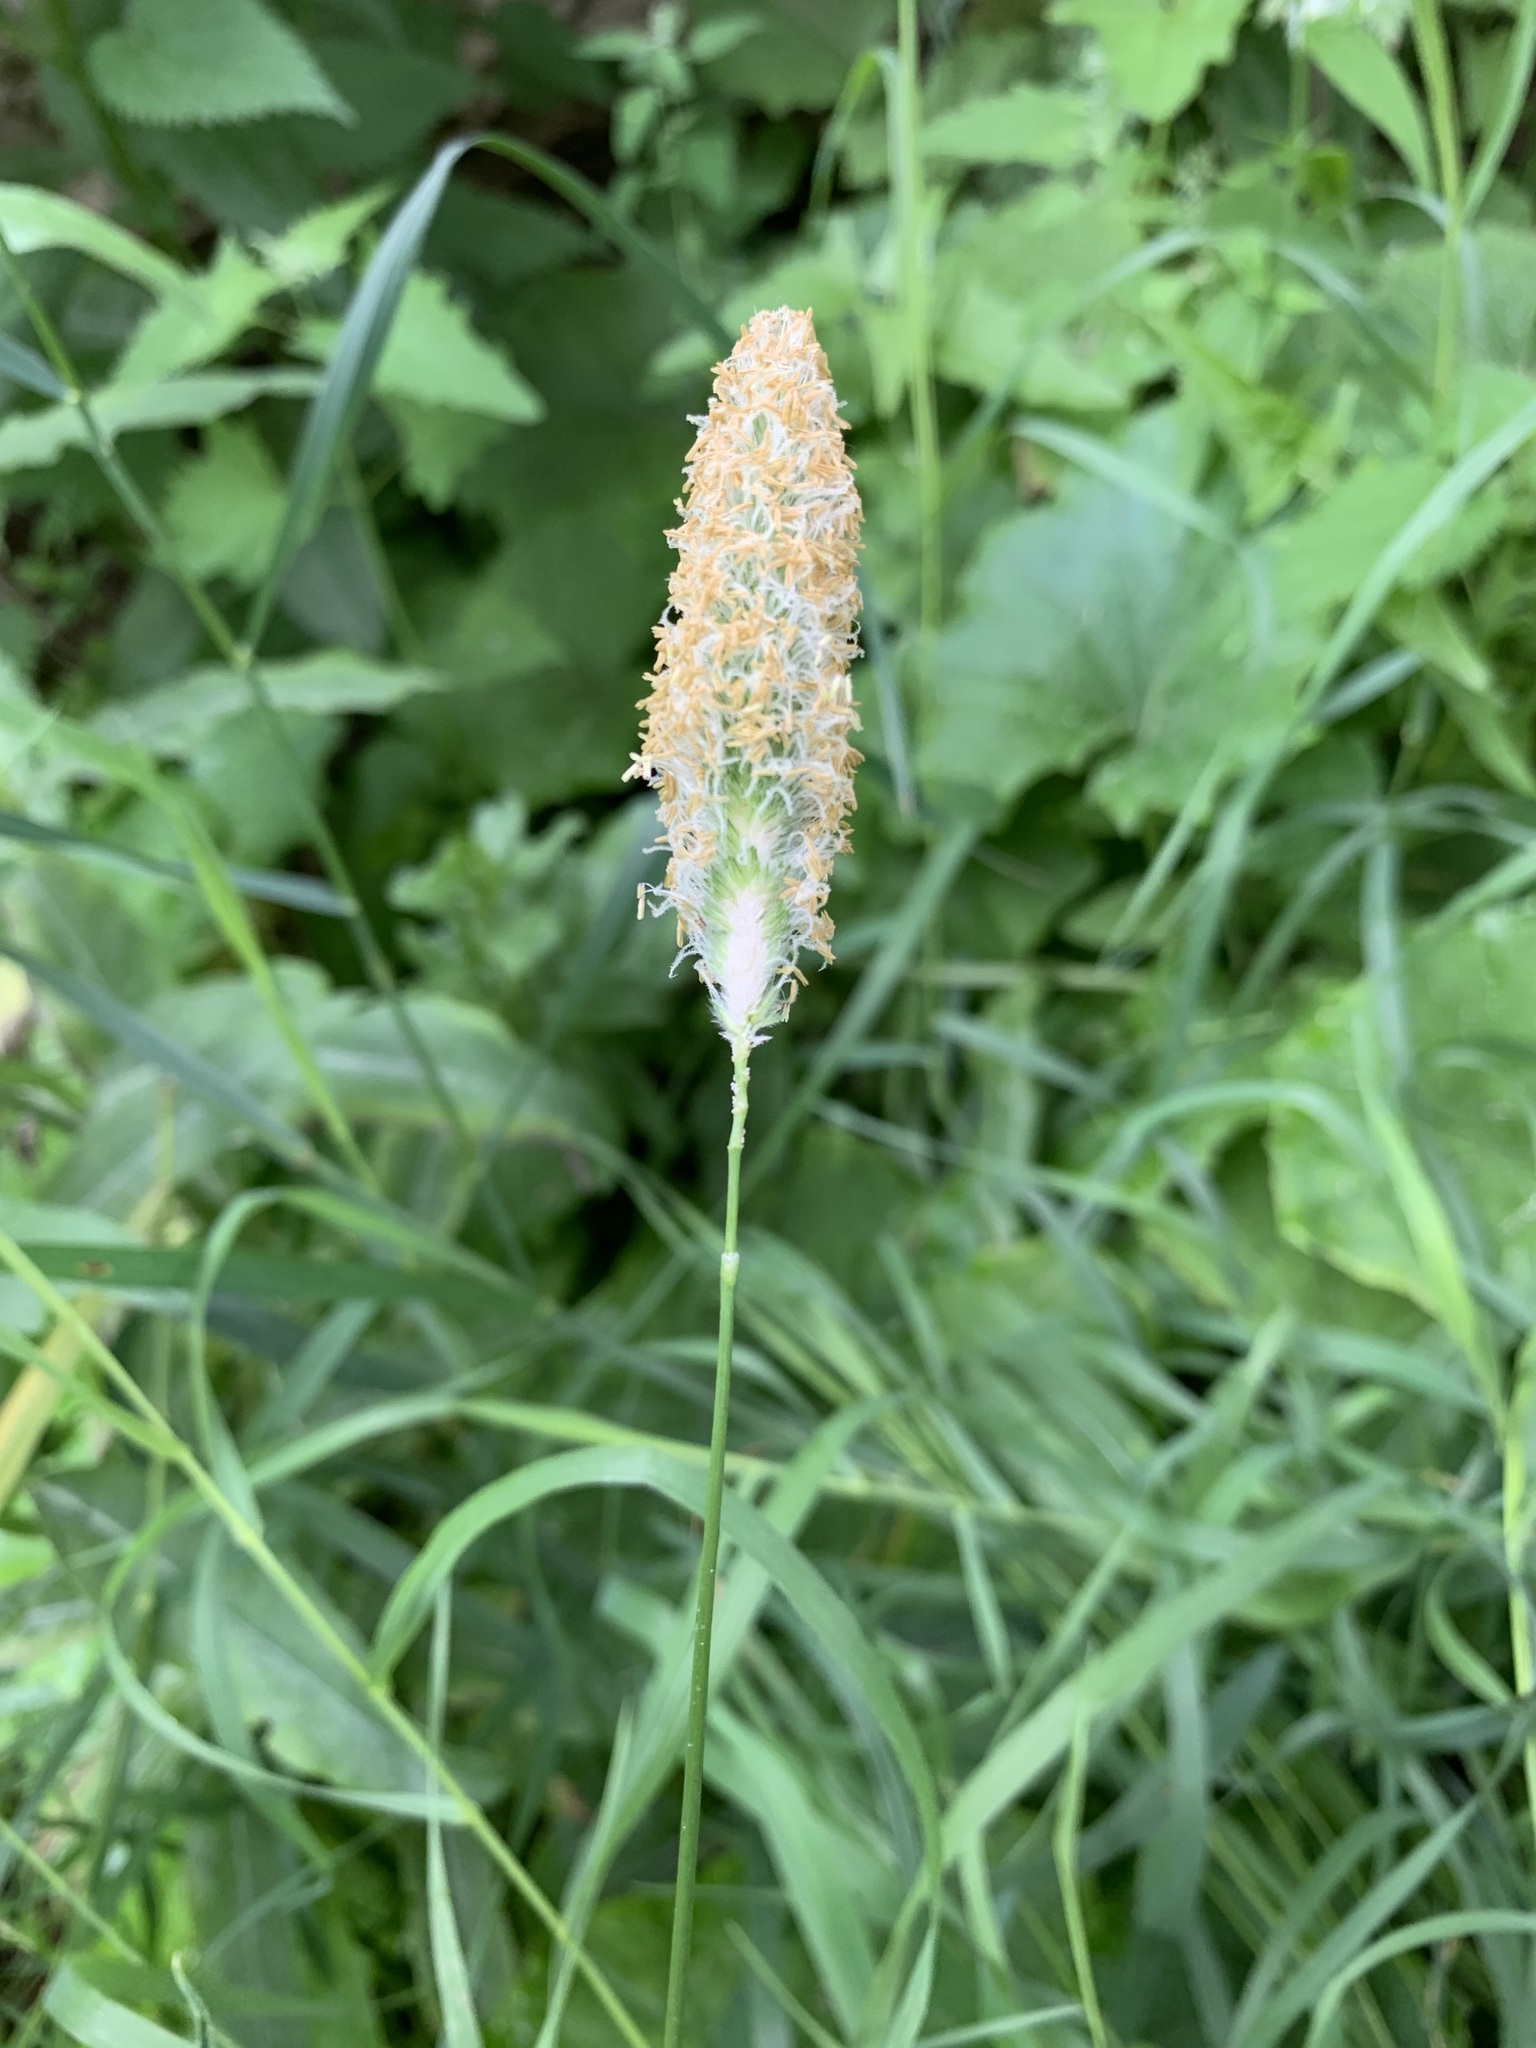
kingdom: Plantae
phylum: Tracheophyta
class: Liliopsida
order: Poales
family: Poaceae
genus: Alopecurus
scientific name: Alopecurus pratensis
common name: Meadow foxtail
